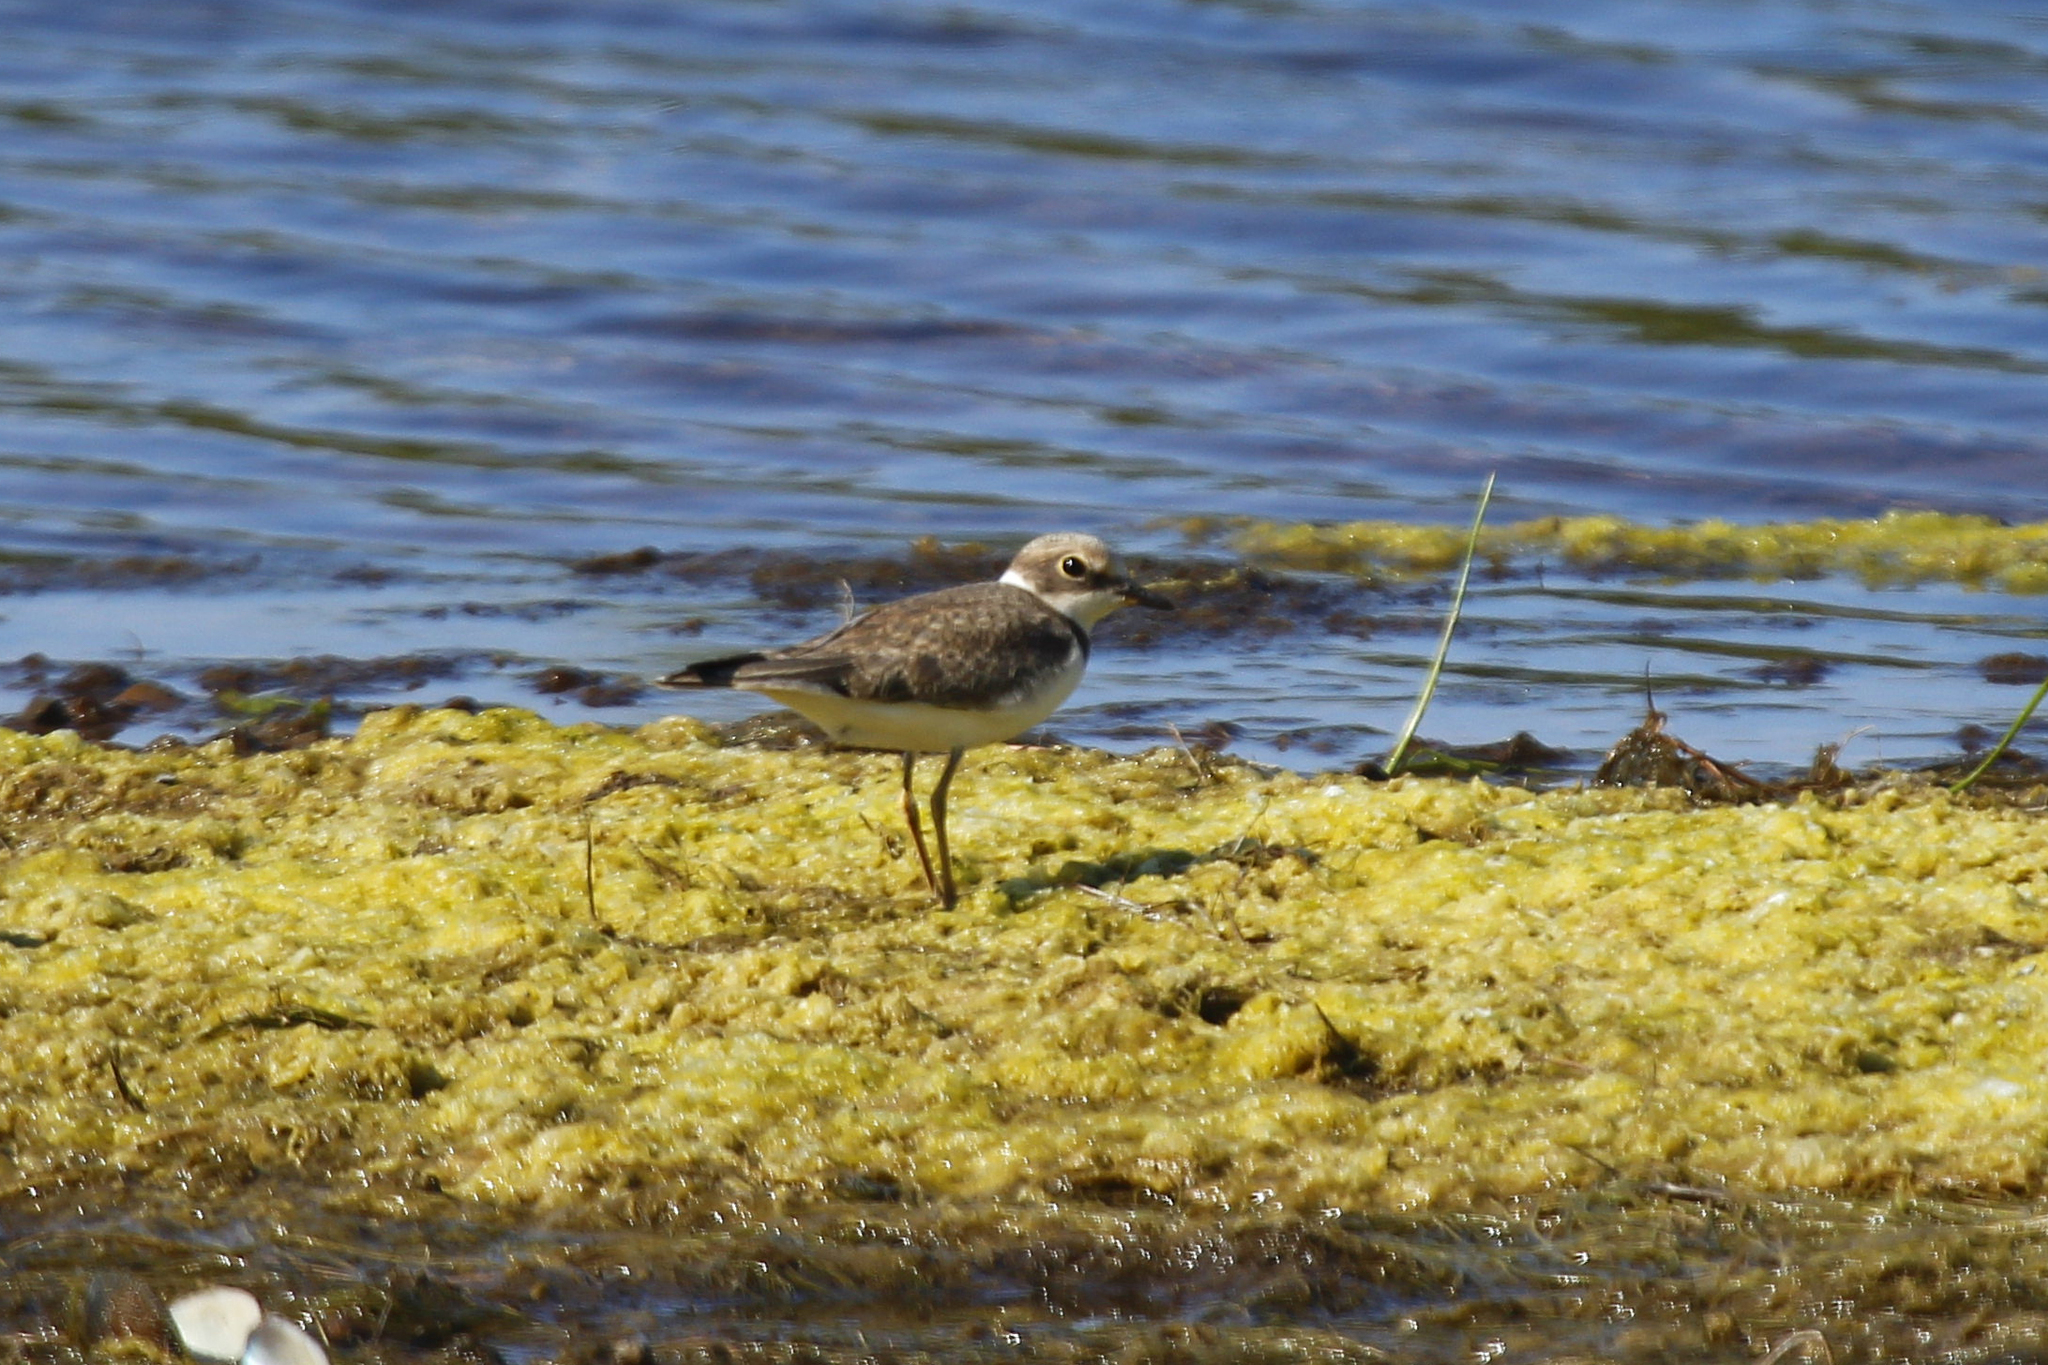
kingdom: Animalia
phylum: Chordata
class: Aves
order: Charadriiformes
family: Charadriidae
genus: Charadrius
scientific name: Charadrius dubius
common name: Little ringed plover
